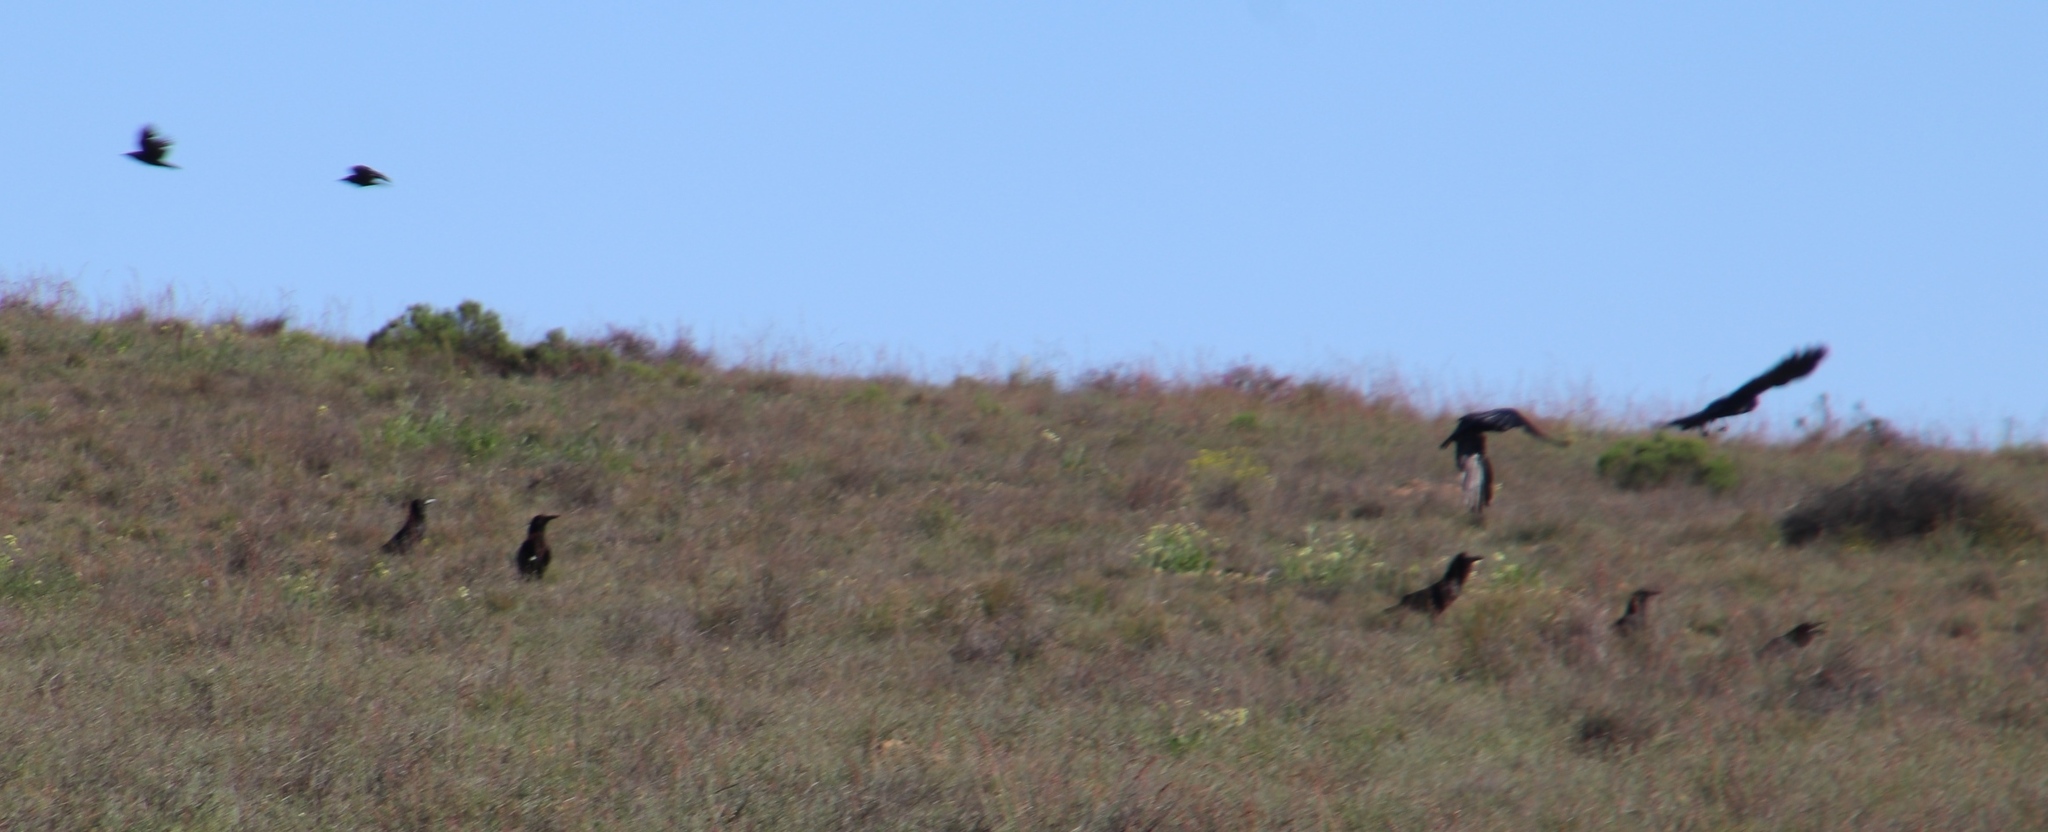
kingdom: Animalia
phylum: Chordata
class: Aves
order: Passeriformes
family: Corvidae
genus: Corvus
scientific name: Corvus capensis
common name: Cape crow
